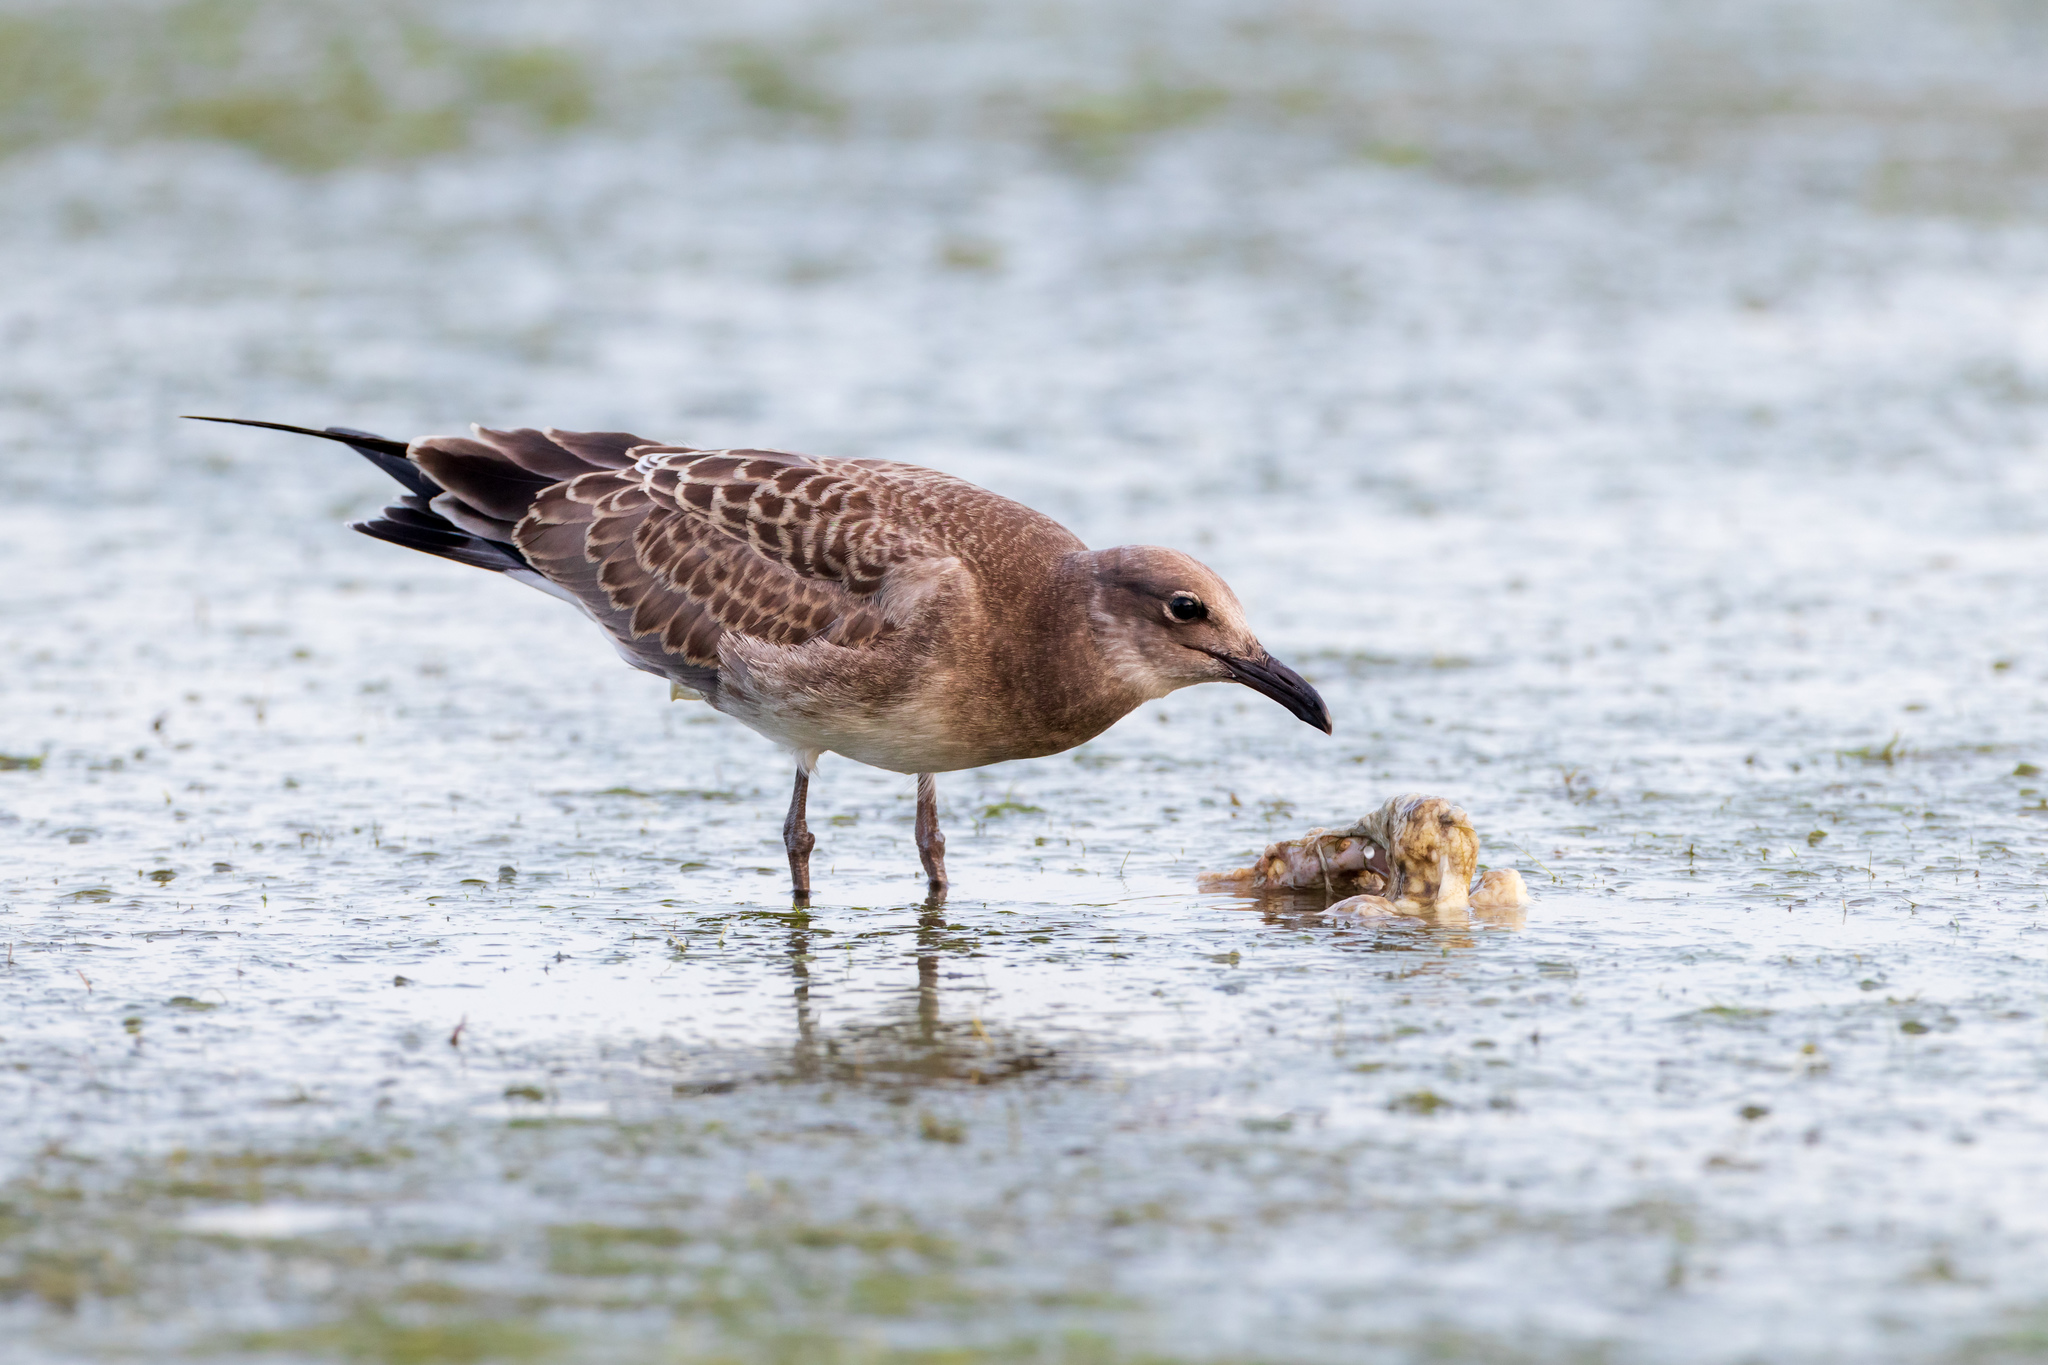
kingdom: Animalia
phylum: Chordata
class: Aves
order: Charadriiformes
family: Laridae
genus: Leucophaeus
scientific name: Leucophaeus atricilla
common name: Laughing gull
